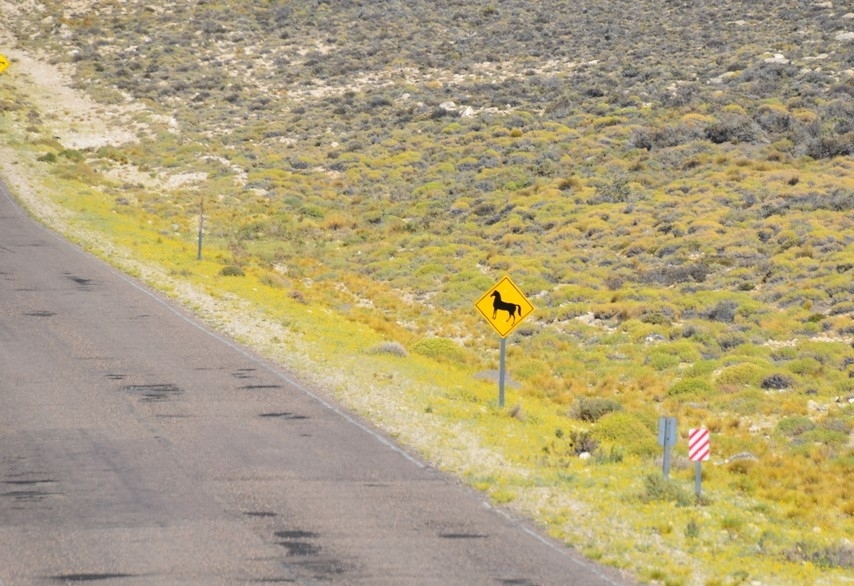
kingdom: Animalia
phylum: Chordata
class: Mammalia
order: Perissodactyla
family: Equidae
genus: Equus
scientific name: Equus caballus
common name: Horse
